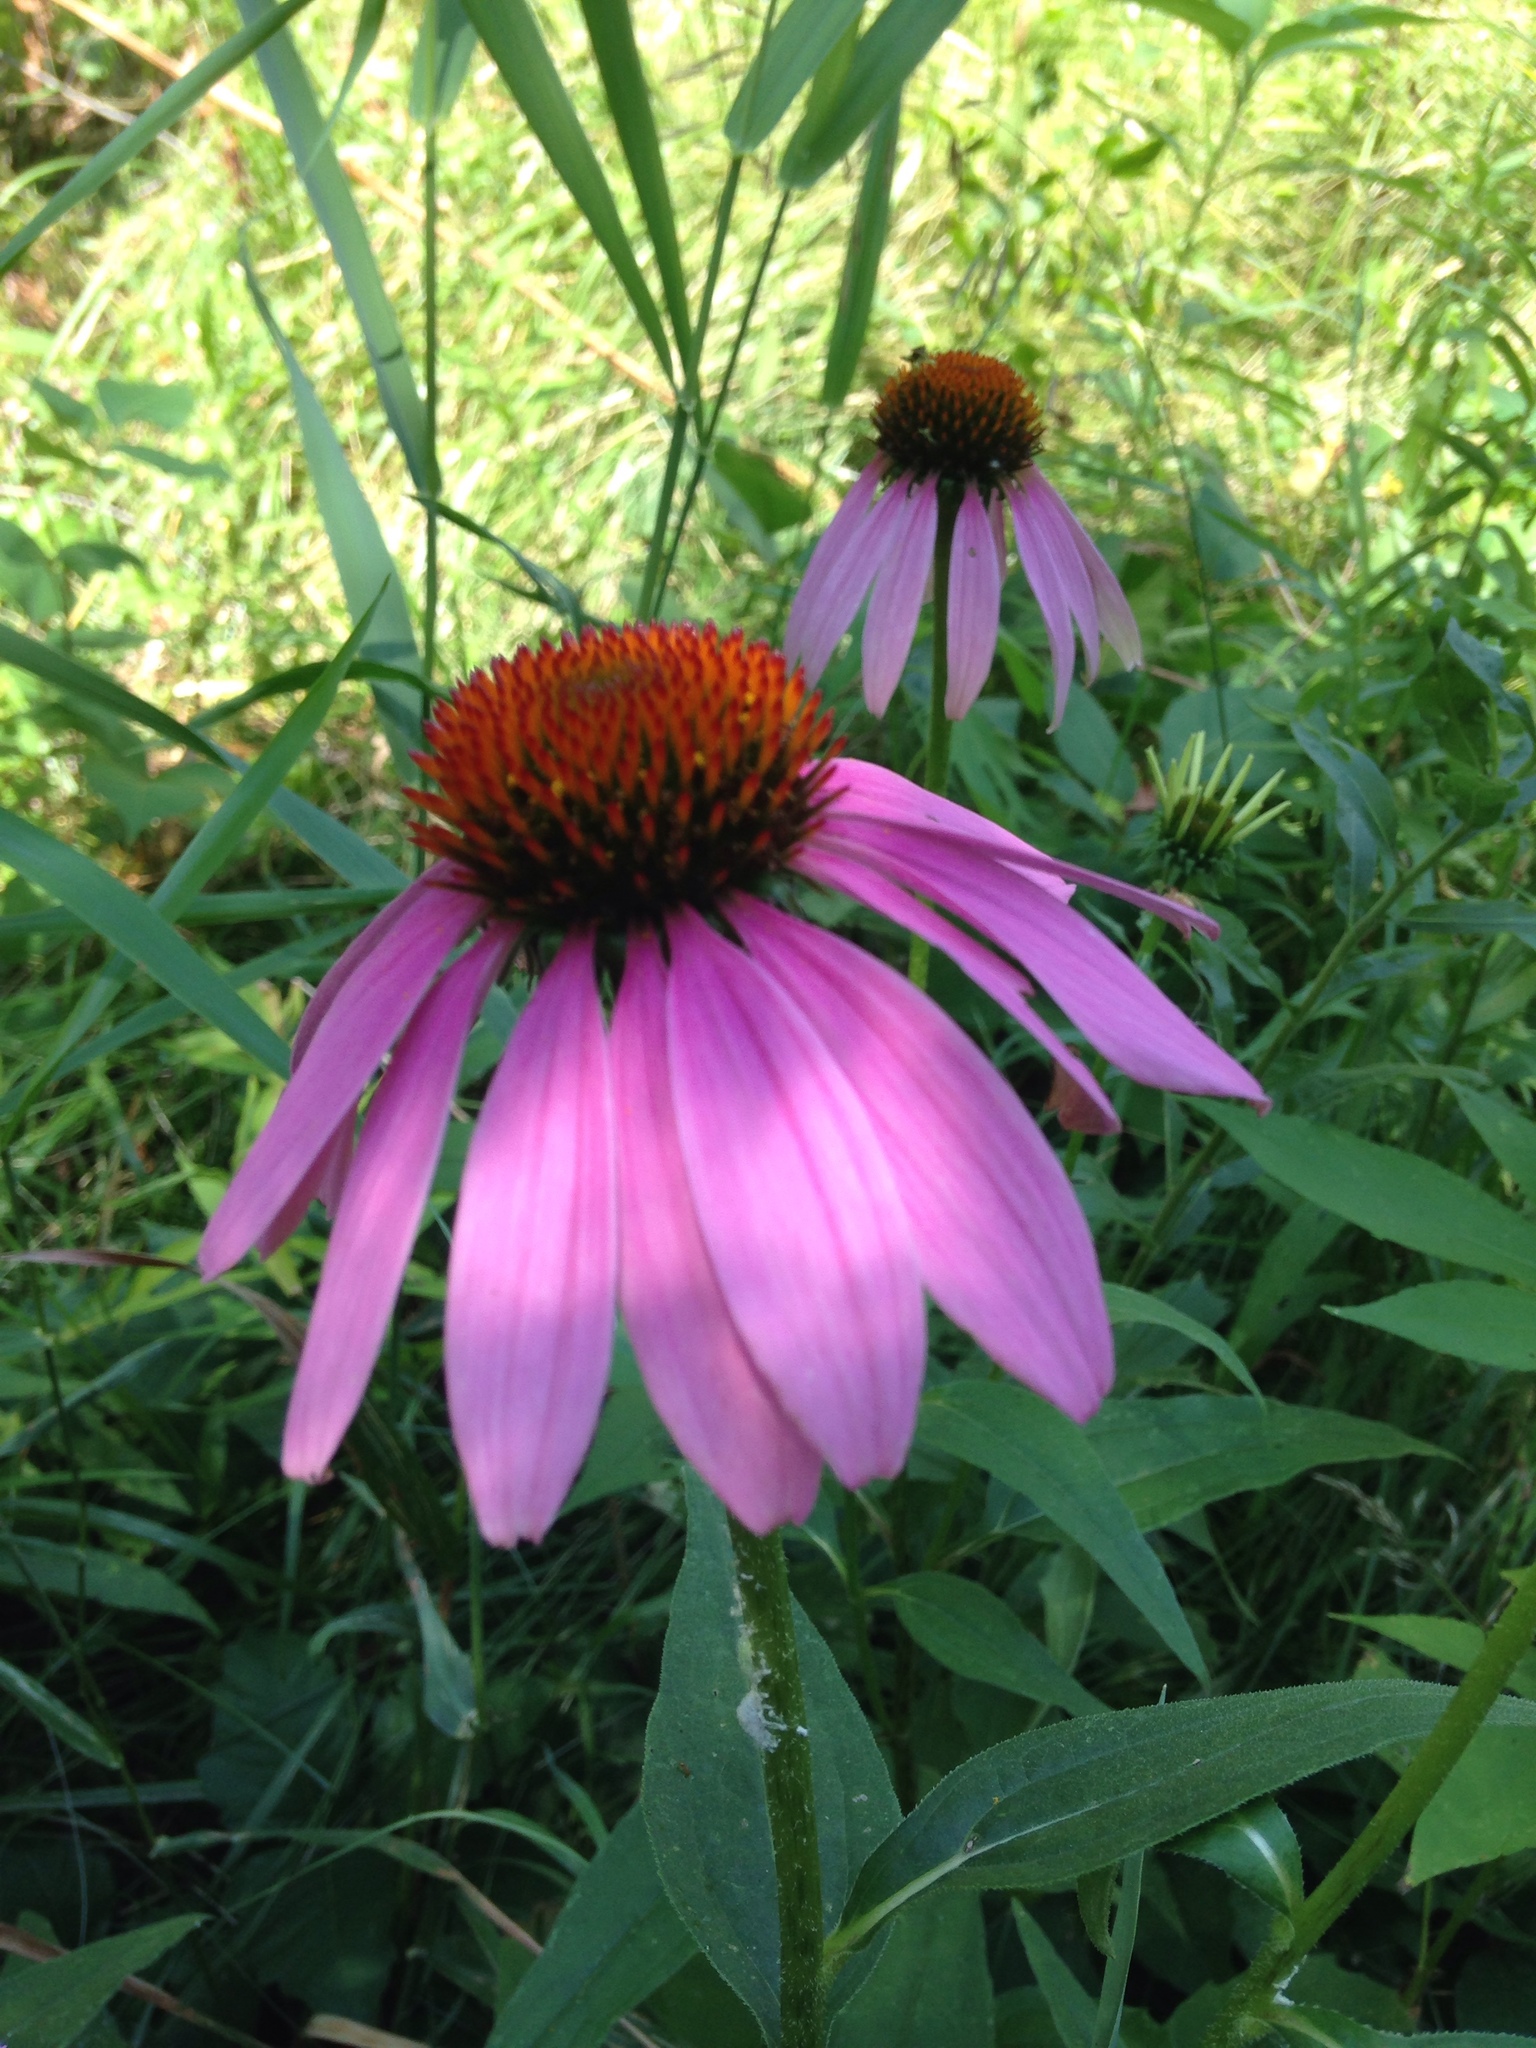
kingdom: Plantae
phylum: Tracheophyta
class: Magnoliopsida
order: Asterales
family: Asteraceae
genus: Echinacea
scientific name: Echinacea purpurea
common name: Broad-leaved purple coneflower
